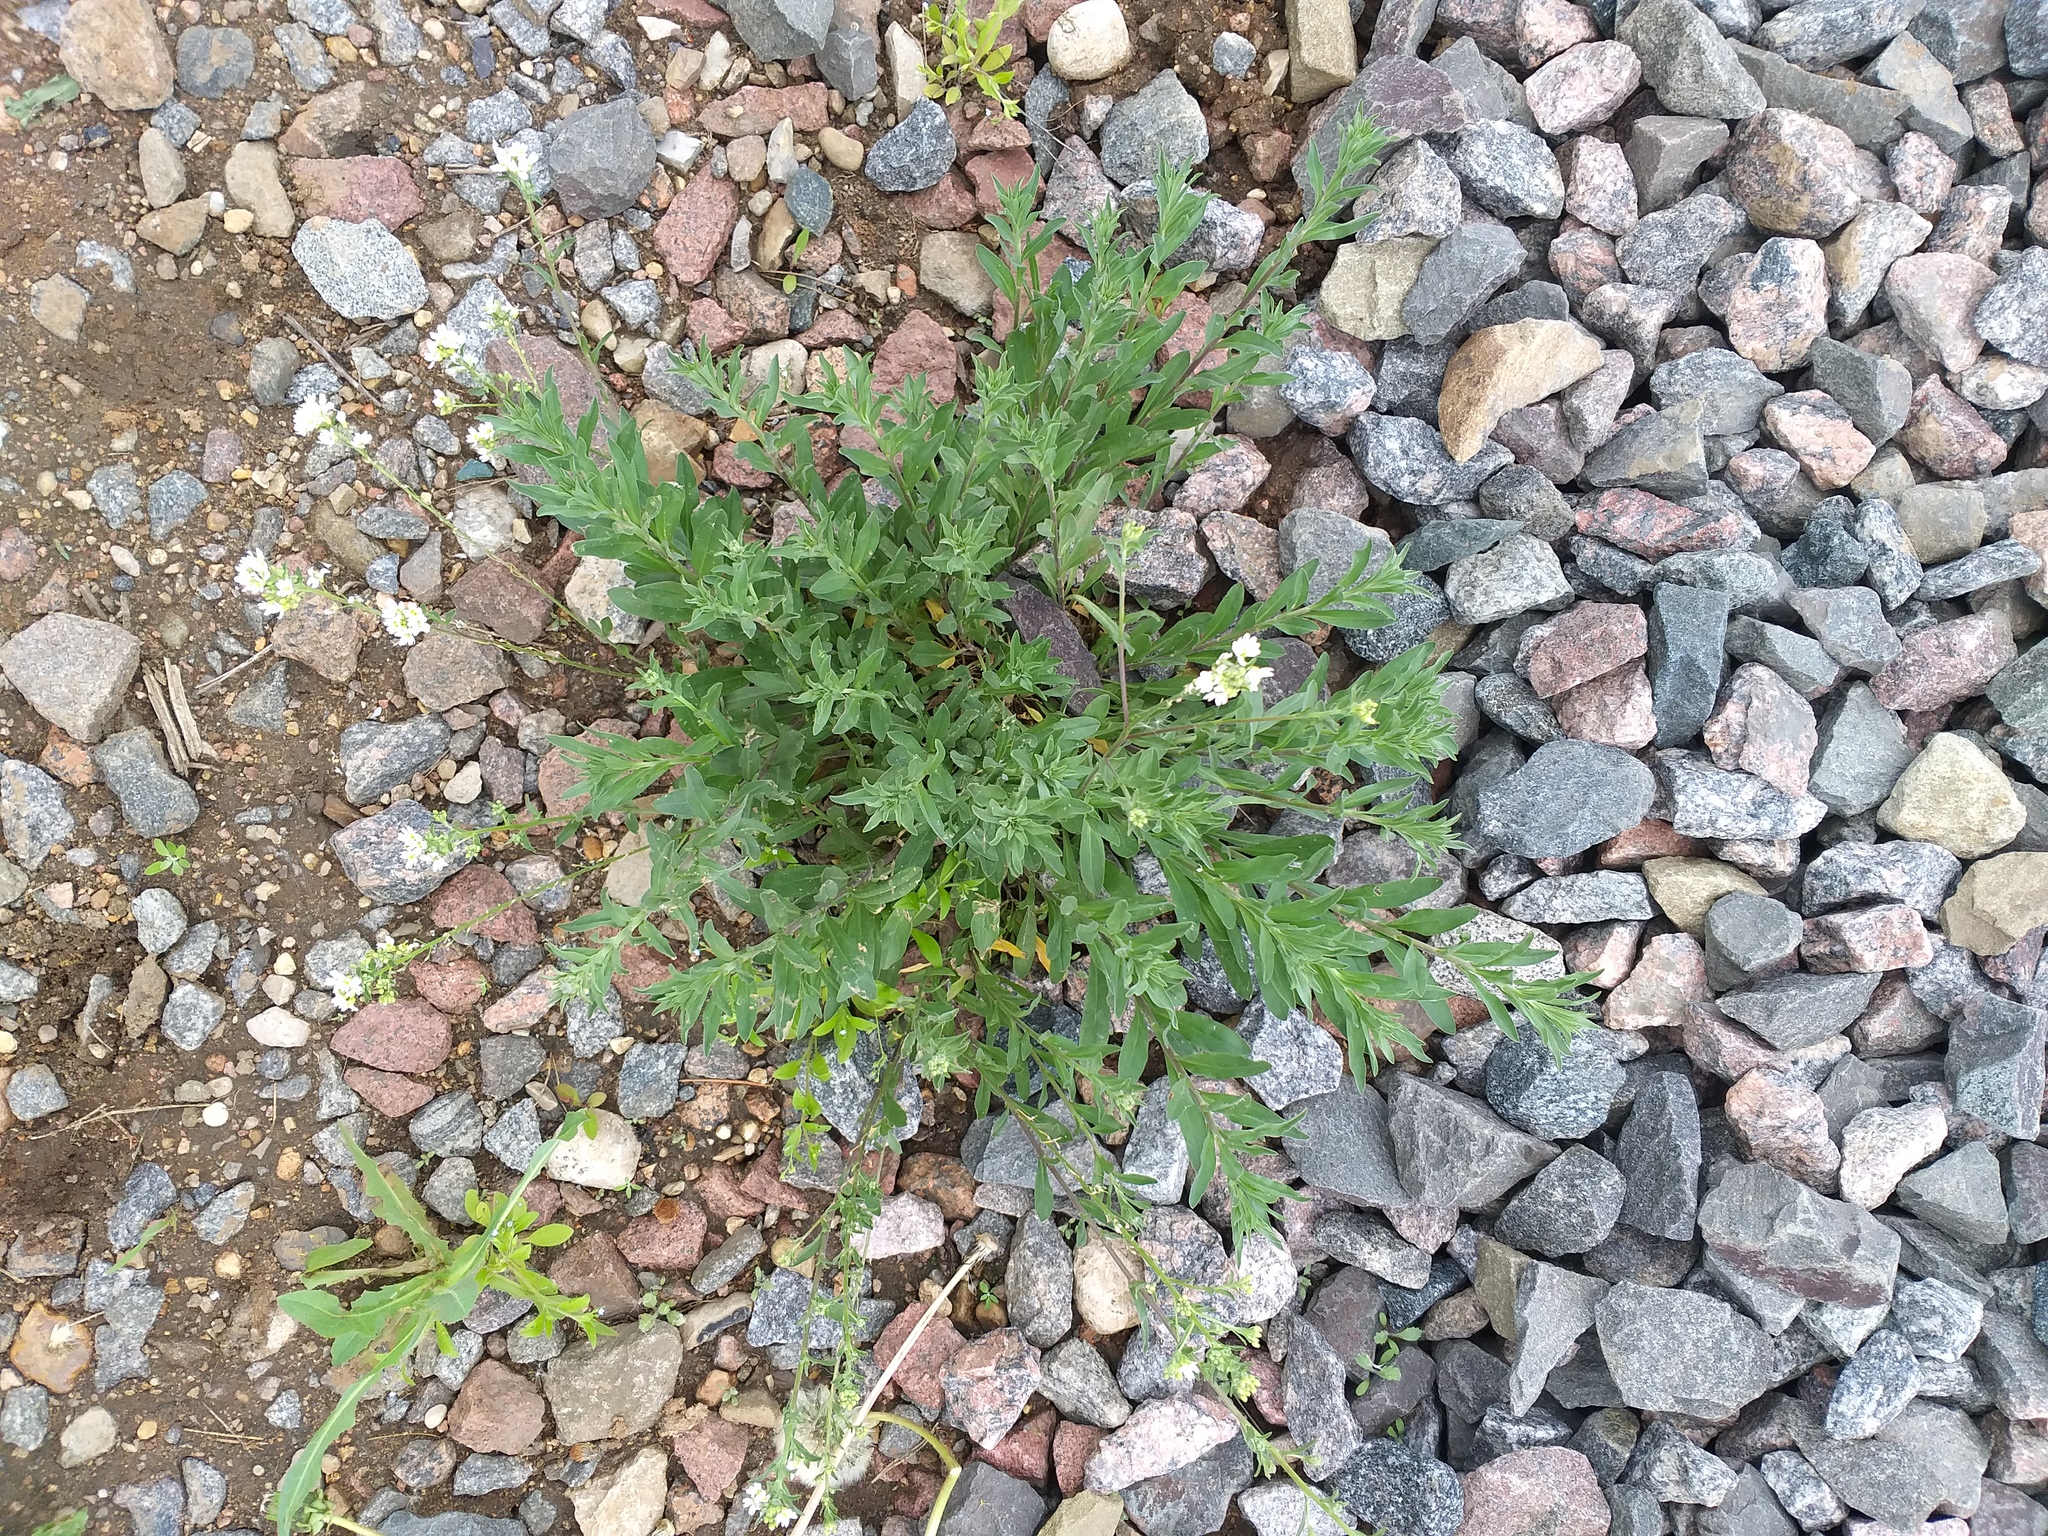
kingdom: Plantae
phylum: Tracheophyta
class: Magnoliopsida
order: Brassicales
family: Brassicaceae
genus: Berteroa
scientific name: Berteroa incana
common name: Hoary alison
